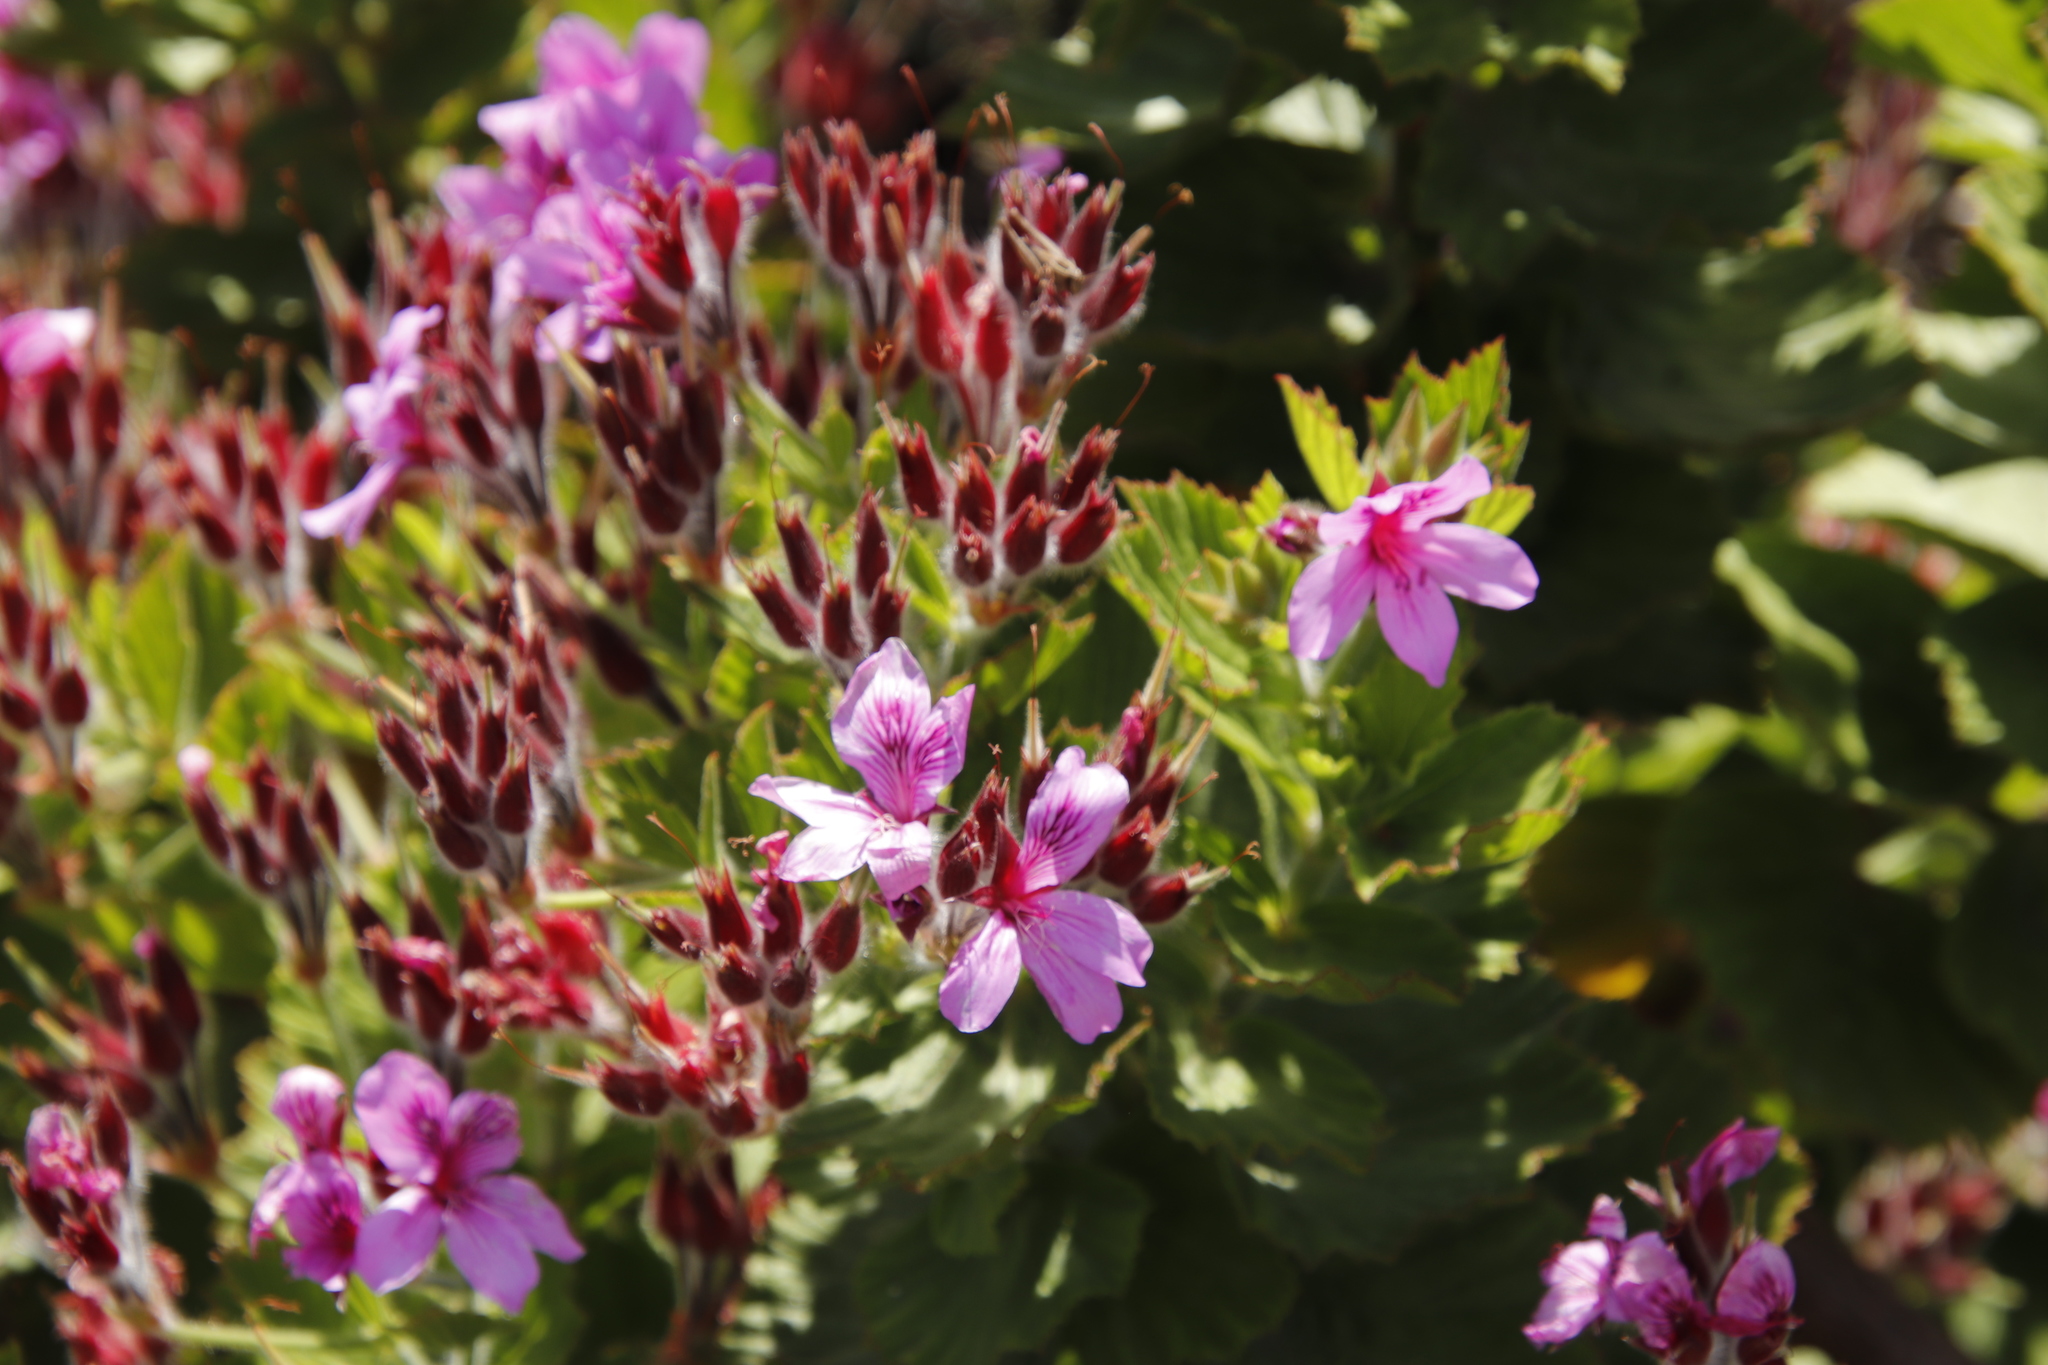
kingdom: Plantae
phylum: Tracheophyta
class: Magnoliopsida
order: Geraniales
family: Geraniaceae
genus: Pelargonium
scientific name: Pelargonium cucullatum
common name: Tree pelargonium
